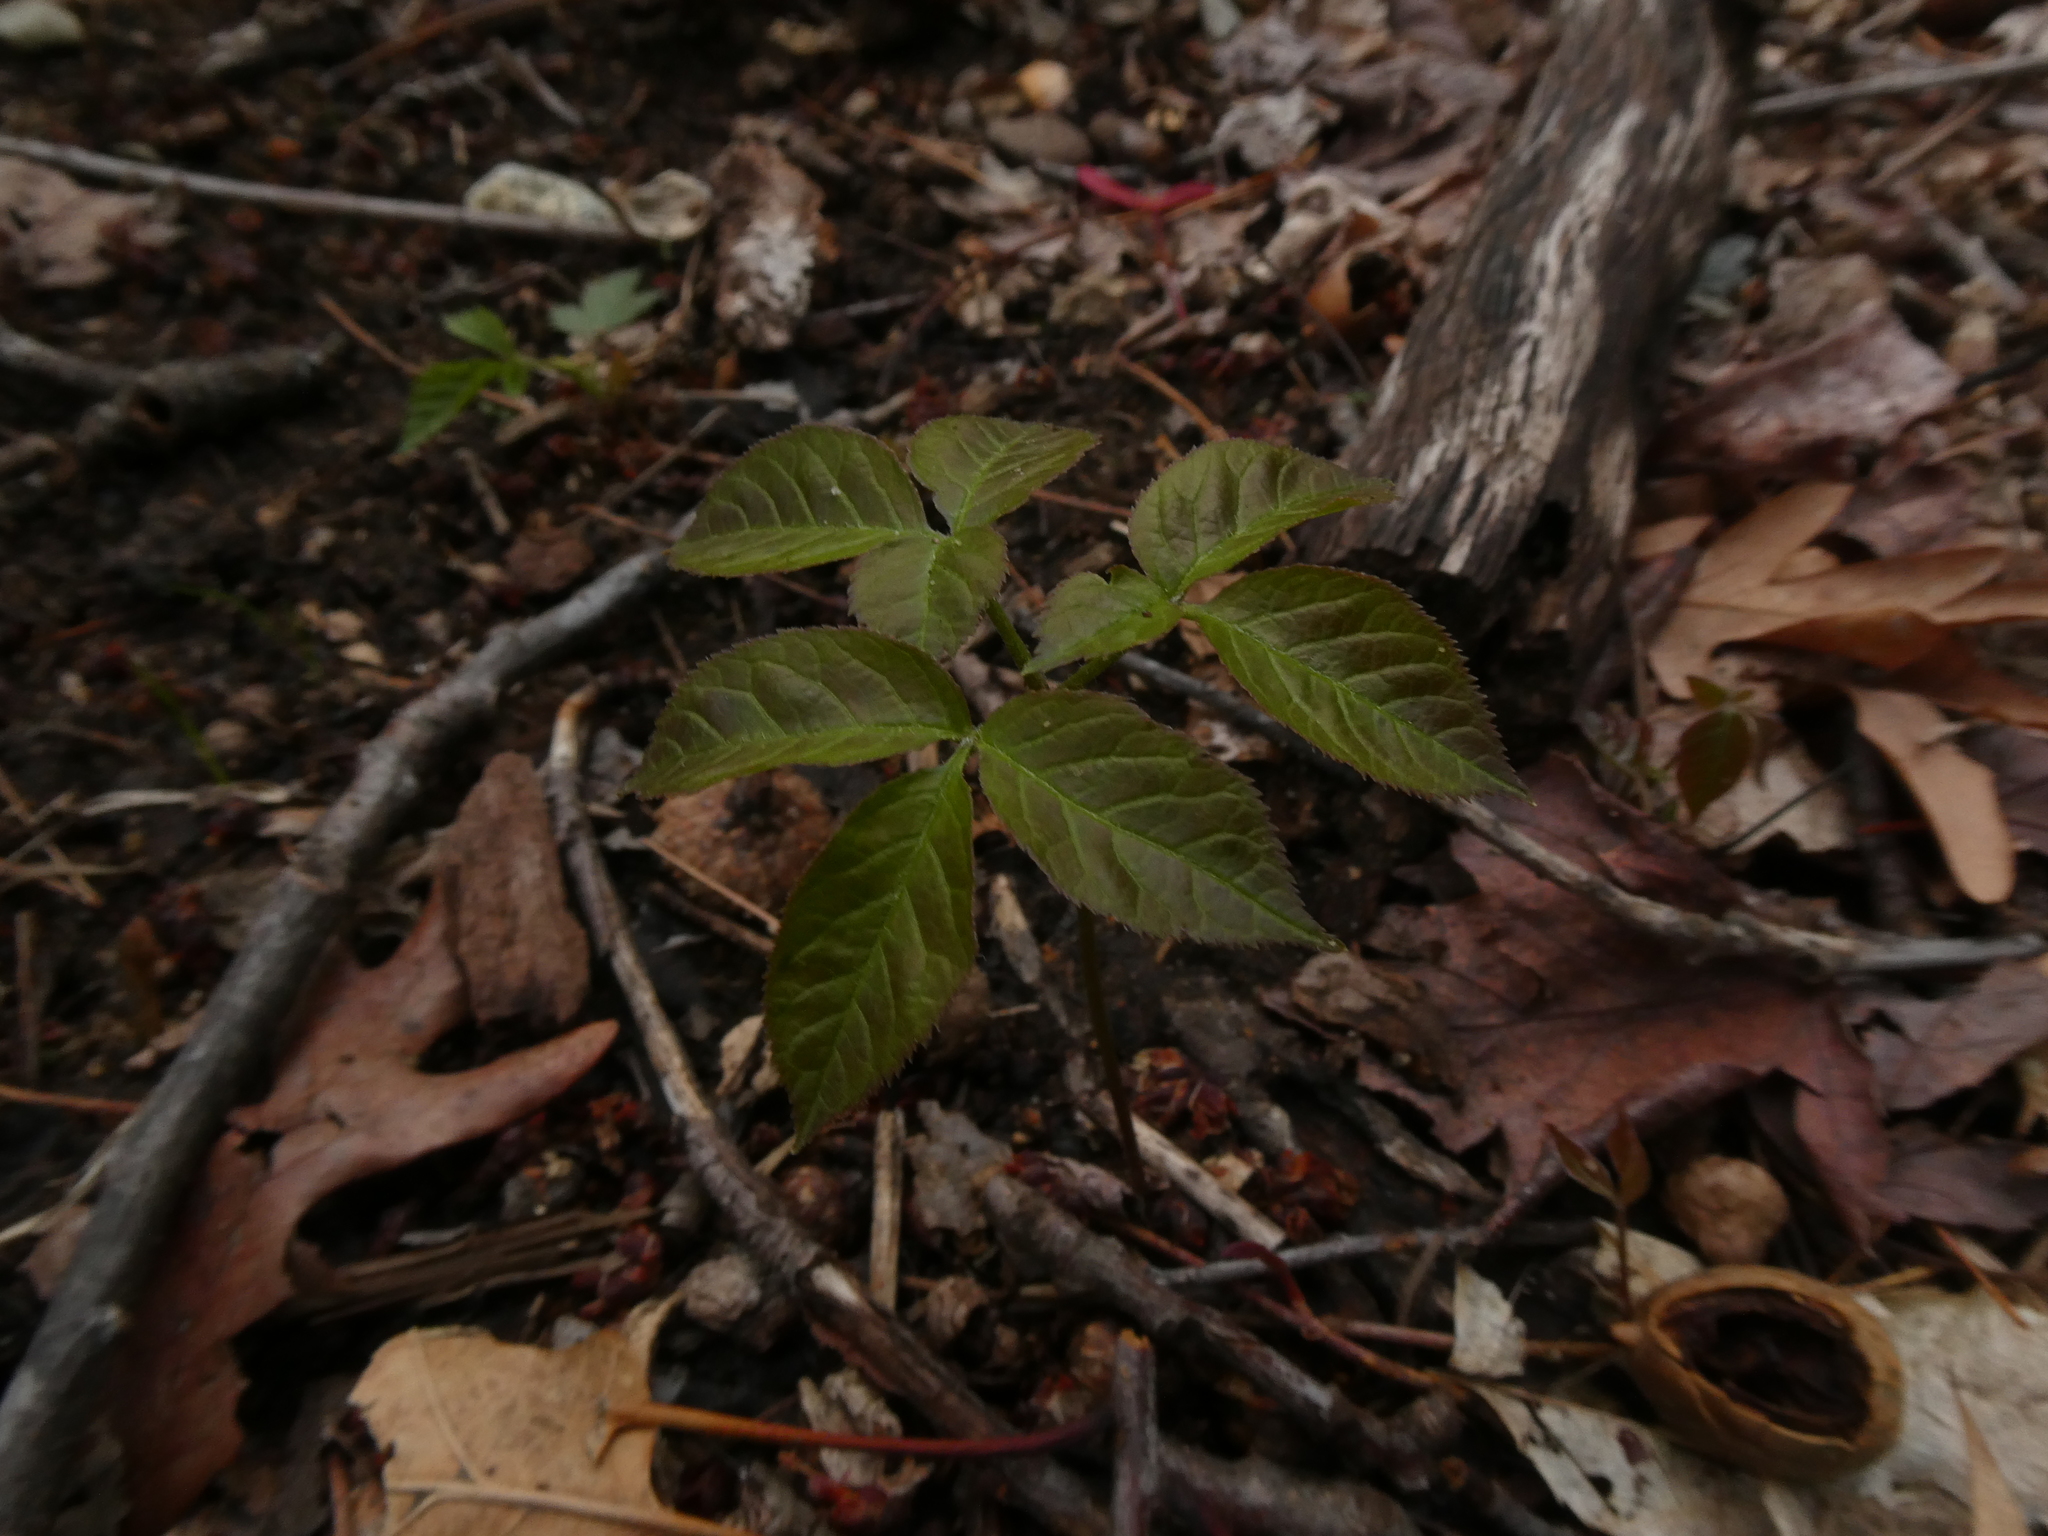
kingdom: Plantae
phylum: Tracheophyta
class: Magnoliopsida
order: Apiales
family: Araliaceae
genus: Aralia
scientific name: Aralia nudicaulis
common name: Wild sarsaparilla
